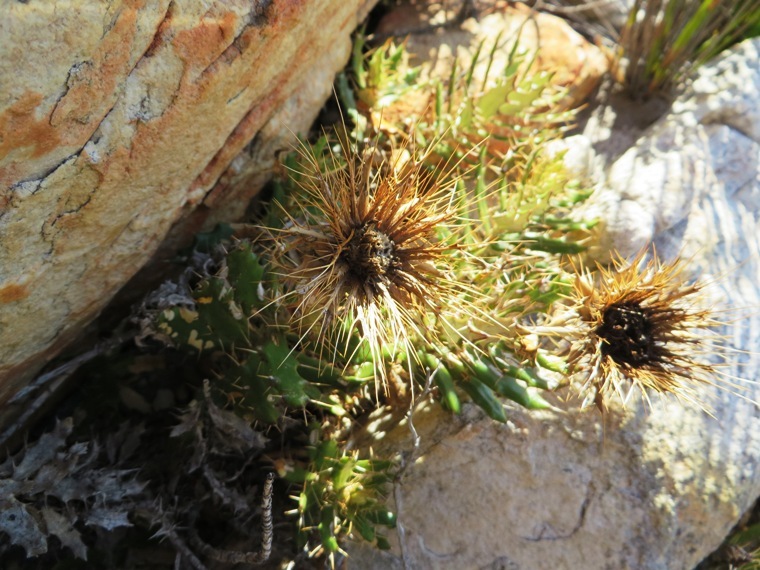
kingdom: Plantae
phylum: Tracheophyta
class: Magnoliopsida
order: Asterales
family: Asteraceae
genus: Berkheya
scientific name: Berkheya barbata
